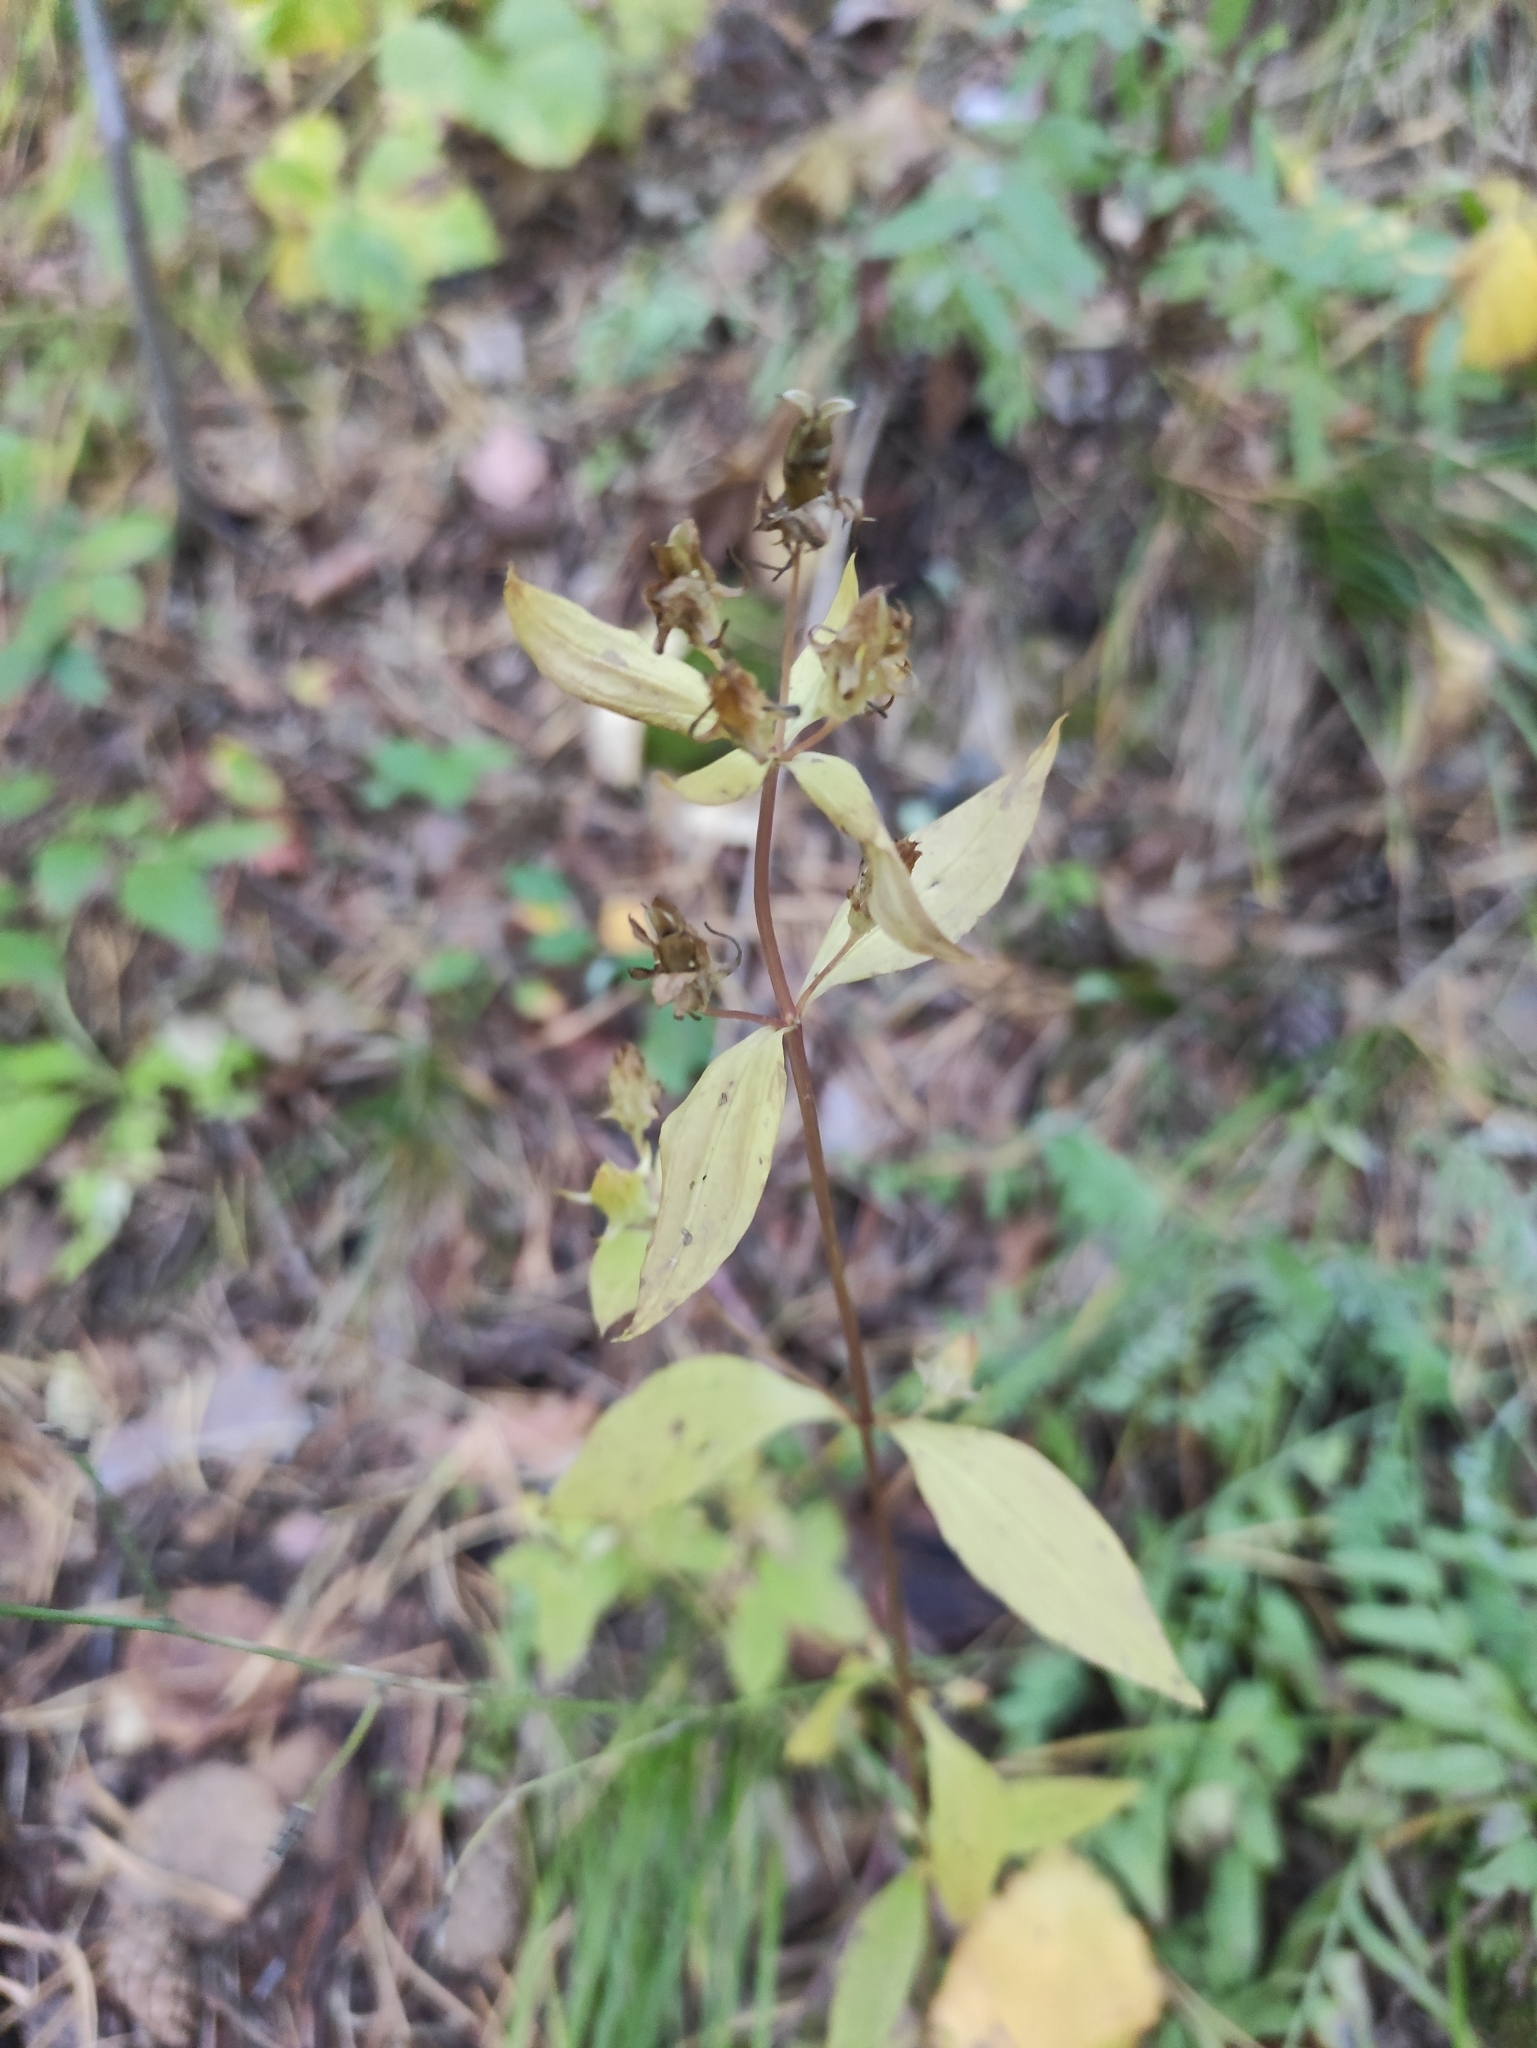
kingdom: Plantae
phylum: Tracheophyta
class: Magnoliopsida
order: Gentianales
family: Gentianaceae
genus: Halenia
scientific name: Halenia corniculata
